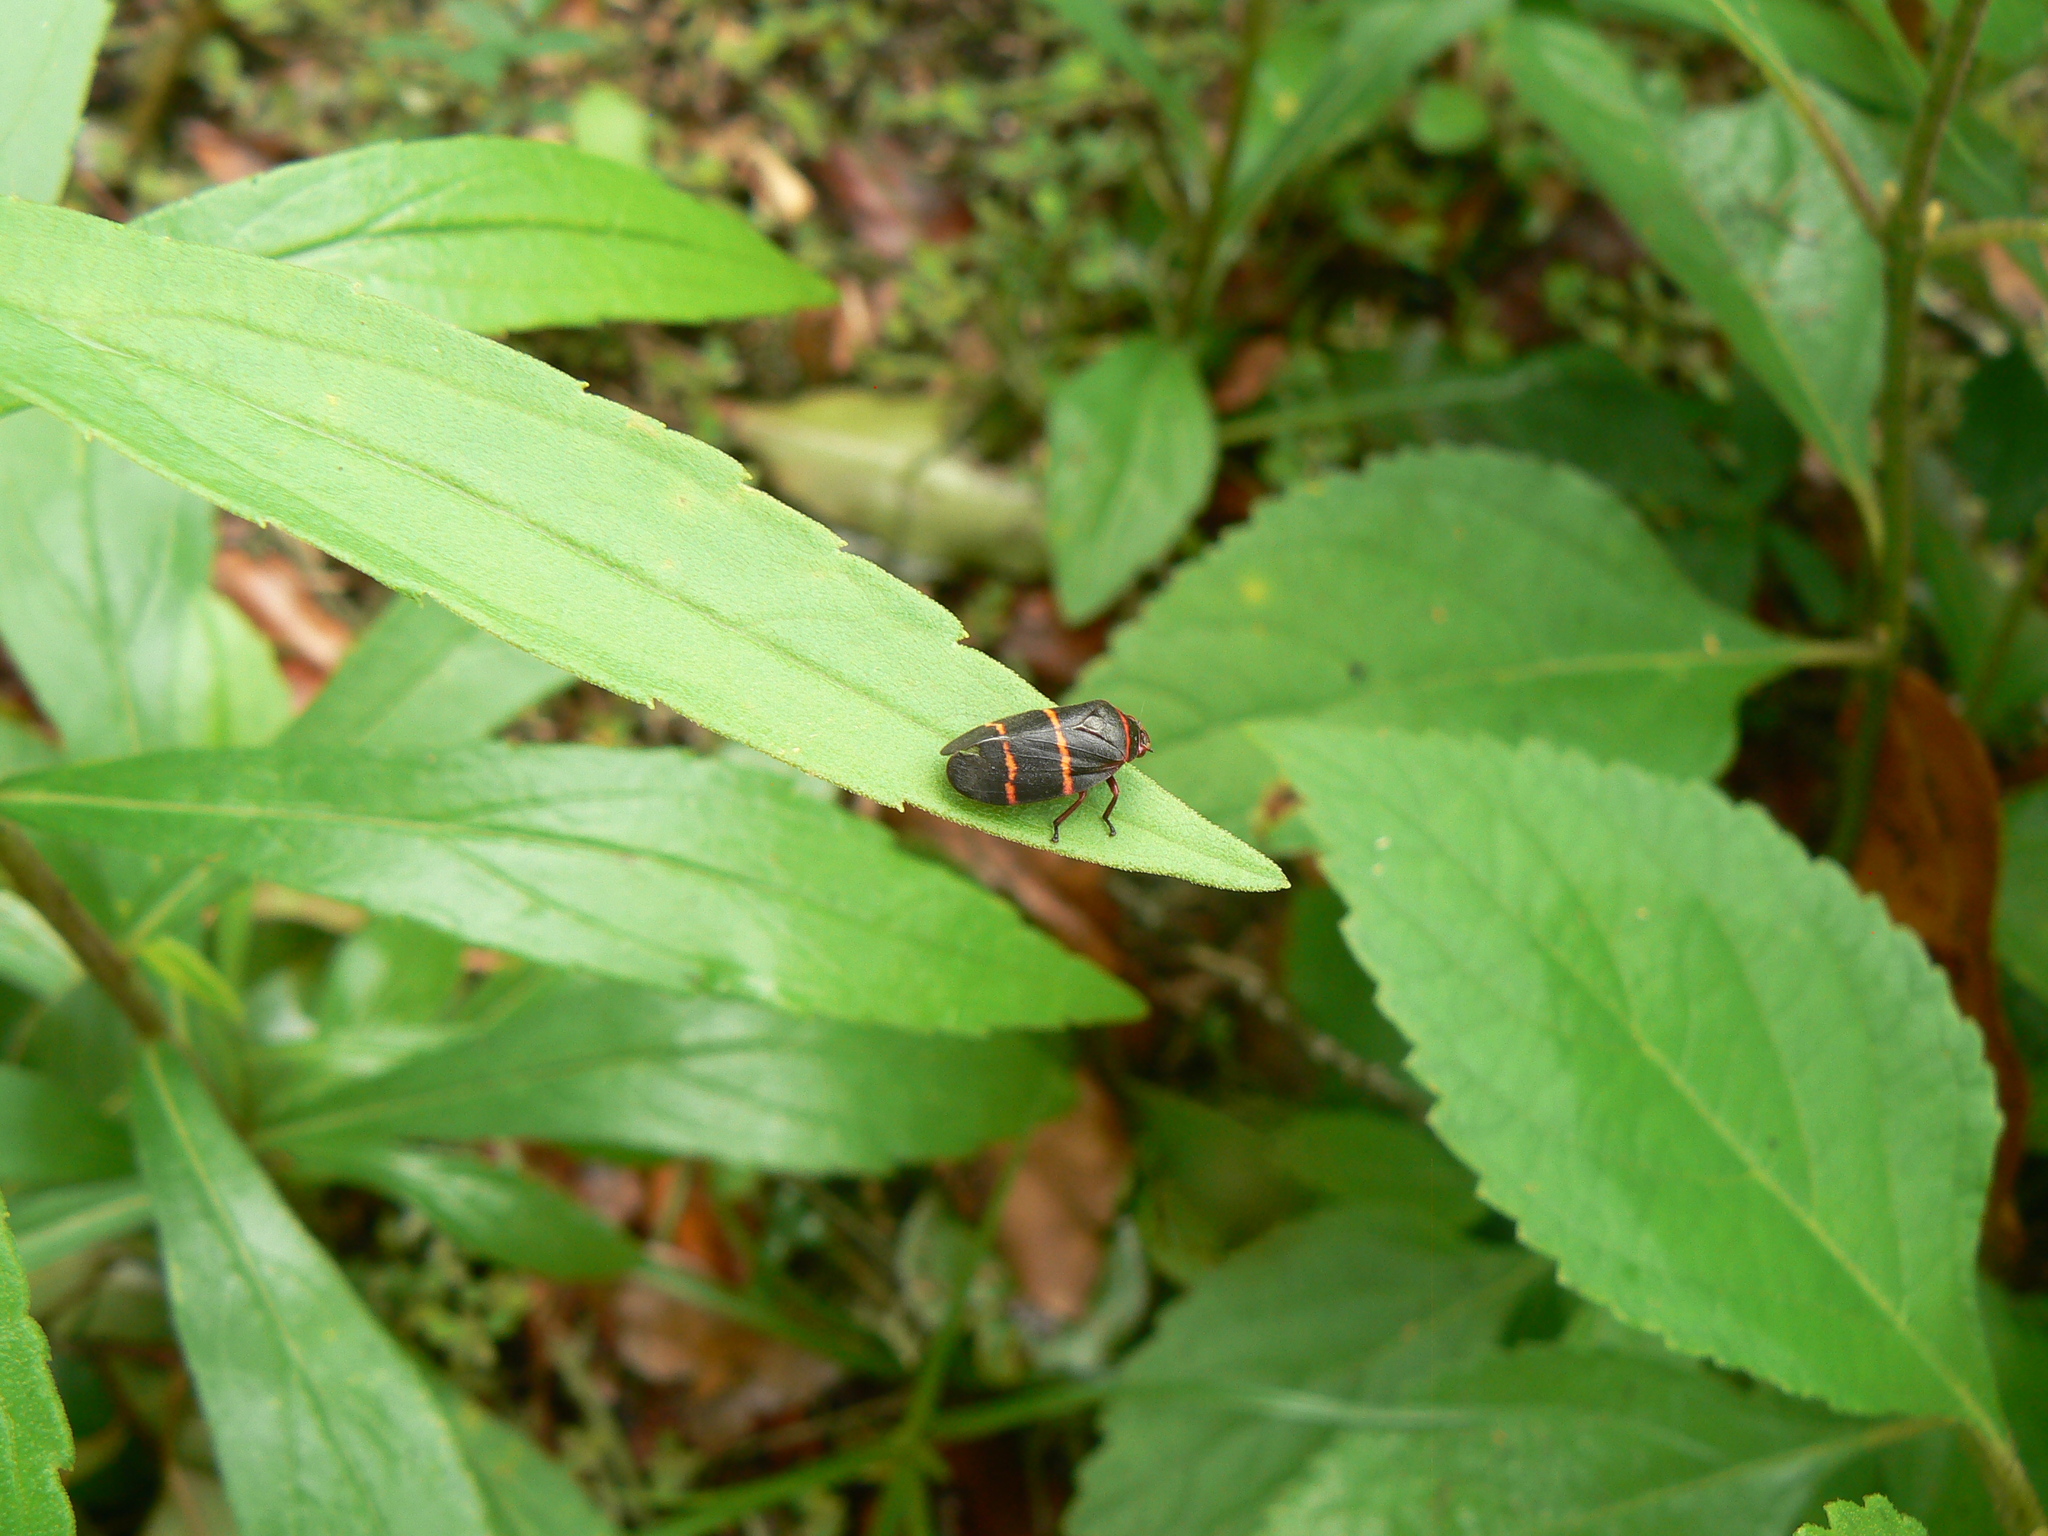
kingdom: Animalia
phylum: Arthropoda
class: Insecta
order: Hemiptera
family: Cercopidae
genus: Prosapia
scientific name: Prosapia bicincta
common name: Twolined spittlebug
